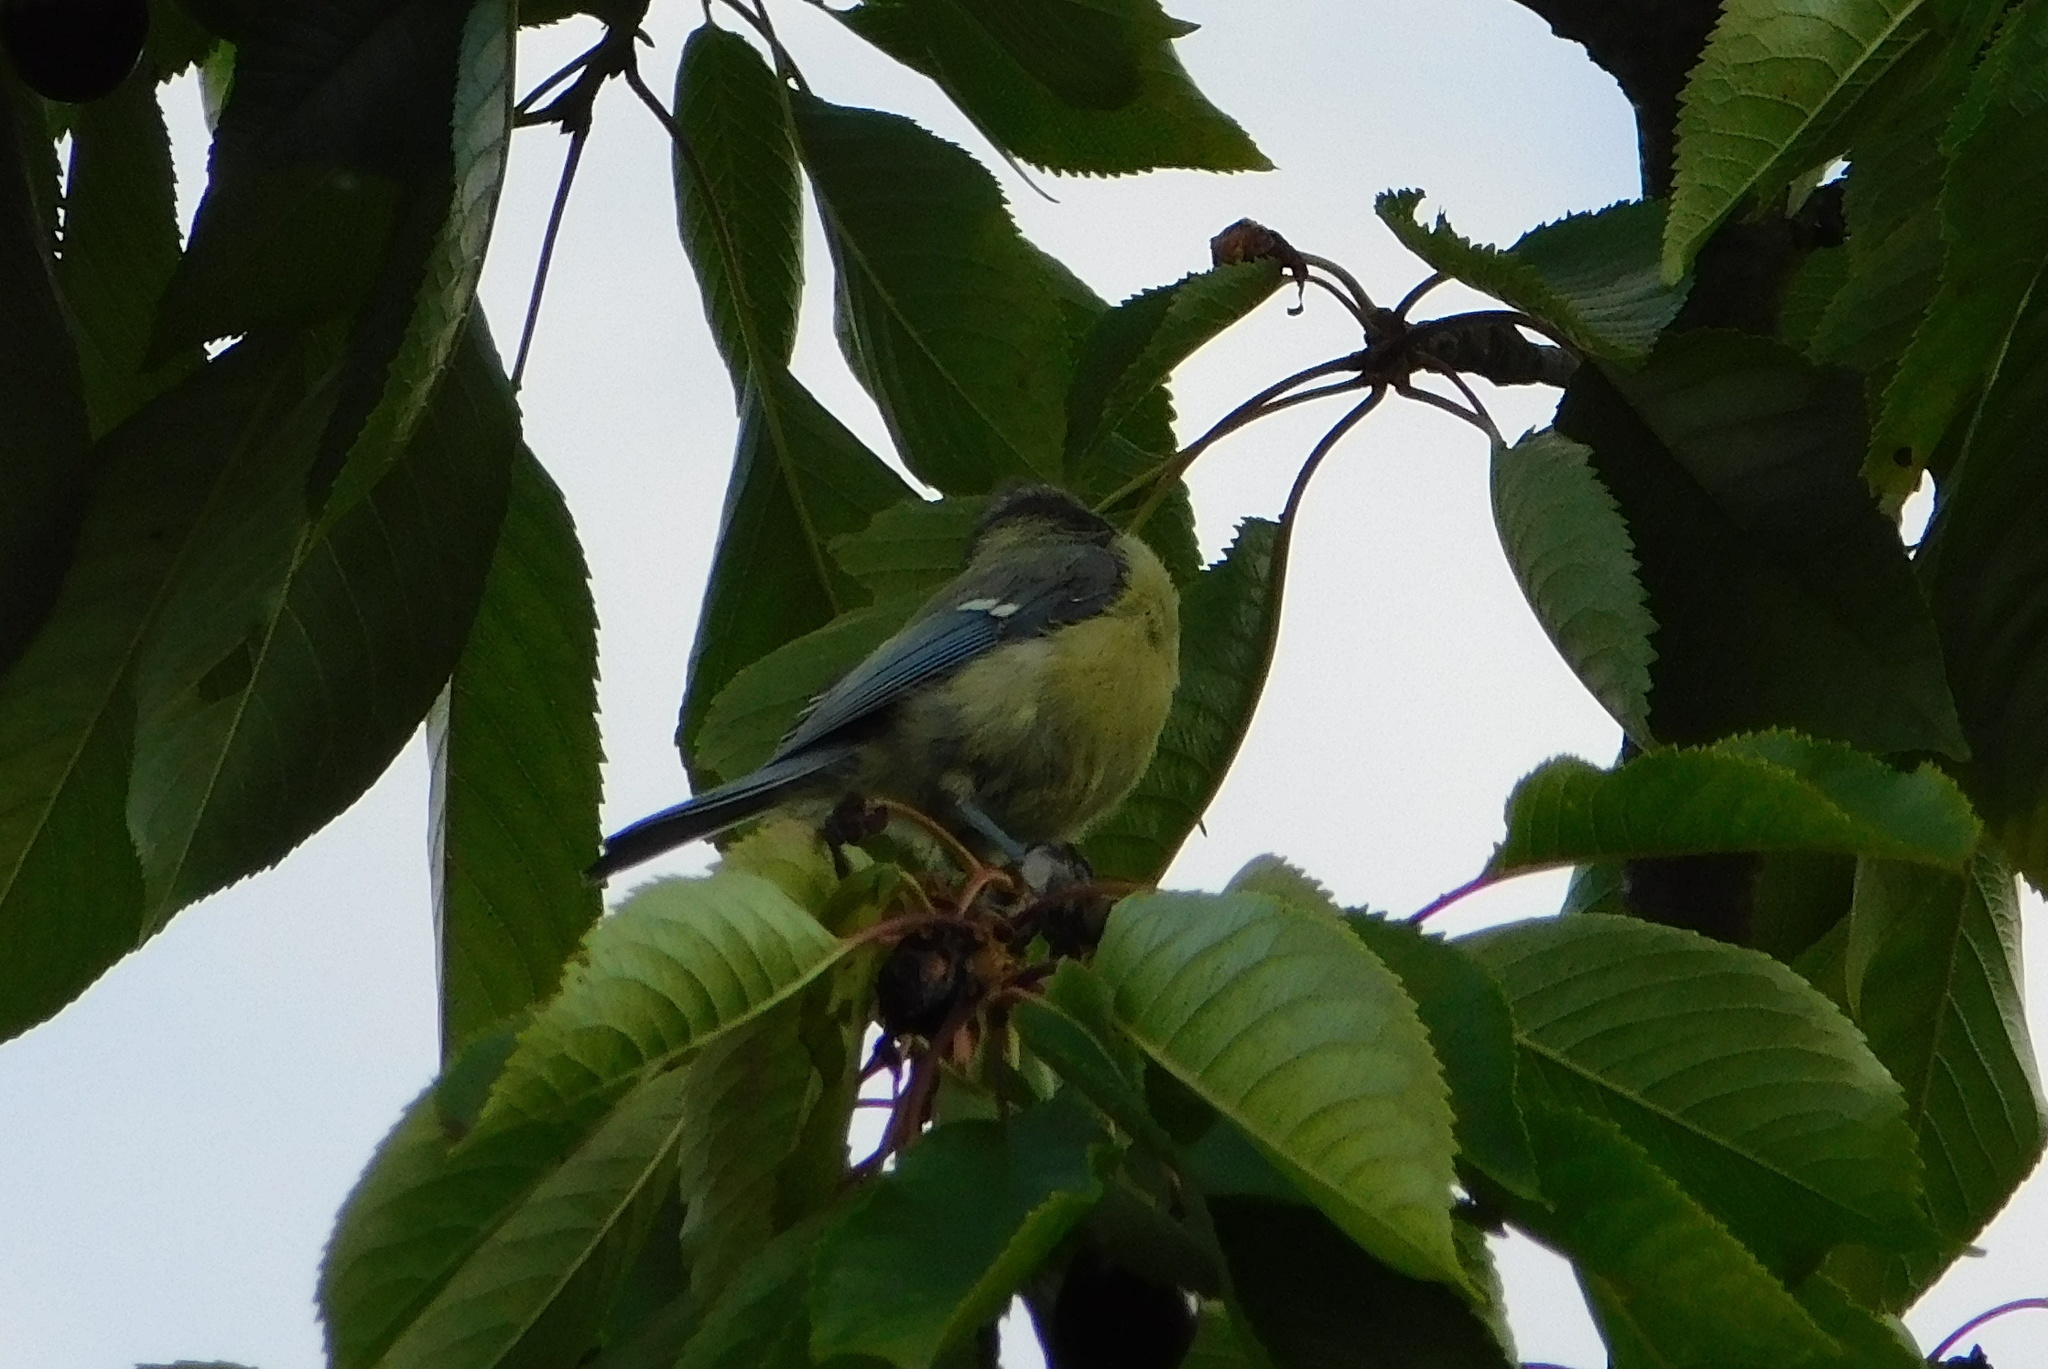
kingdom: Animalia
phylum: Chordata
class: Aves
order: Passeriformes
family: Paridae
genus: Cyanistes
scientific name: Cyanistes caeruleus
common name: Eurasian blue tit
